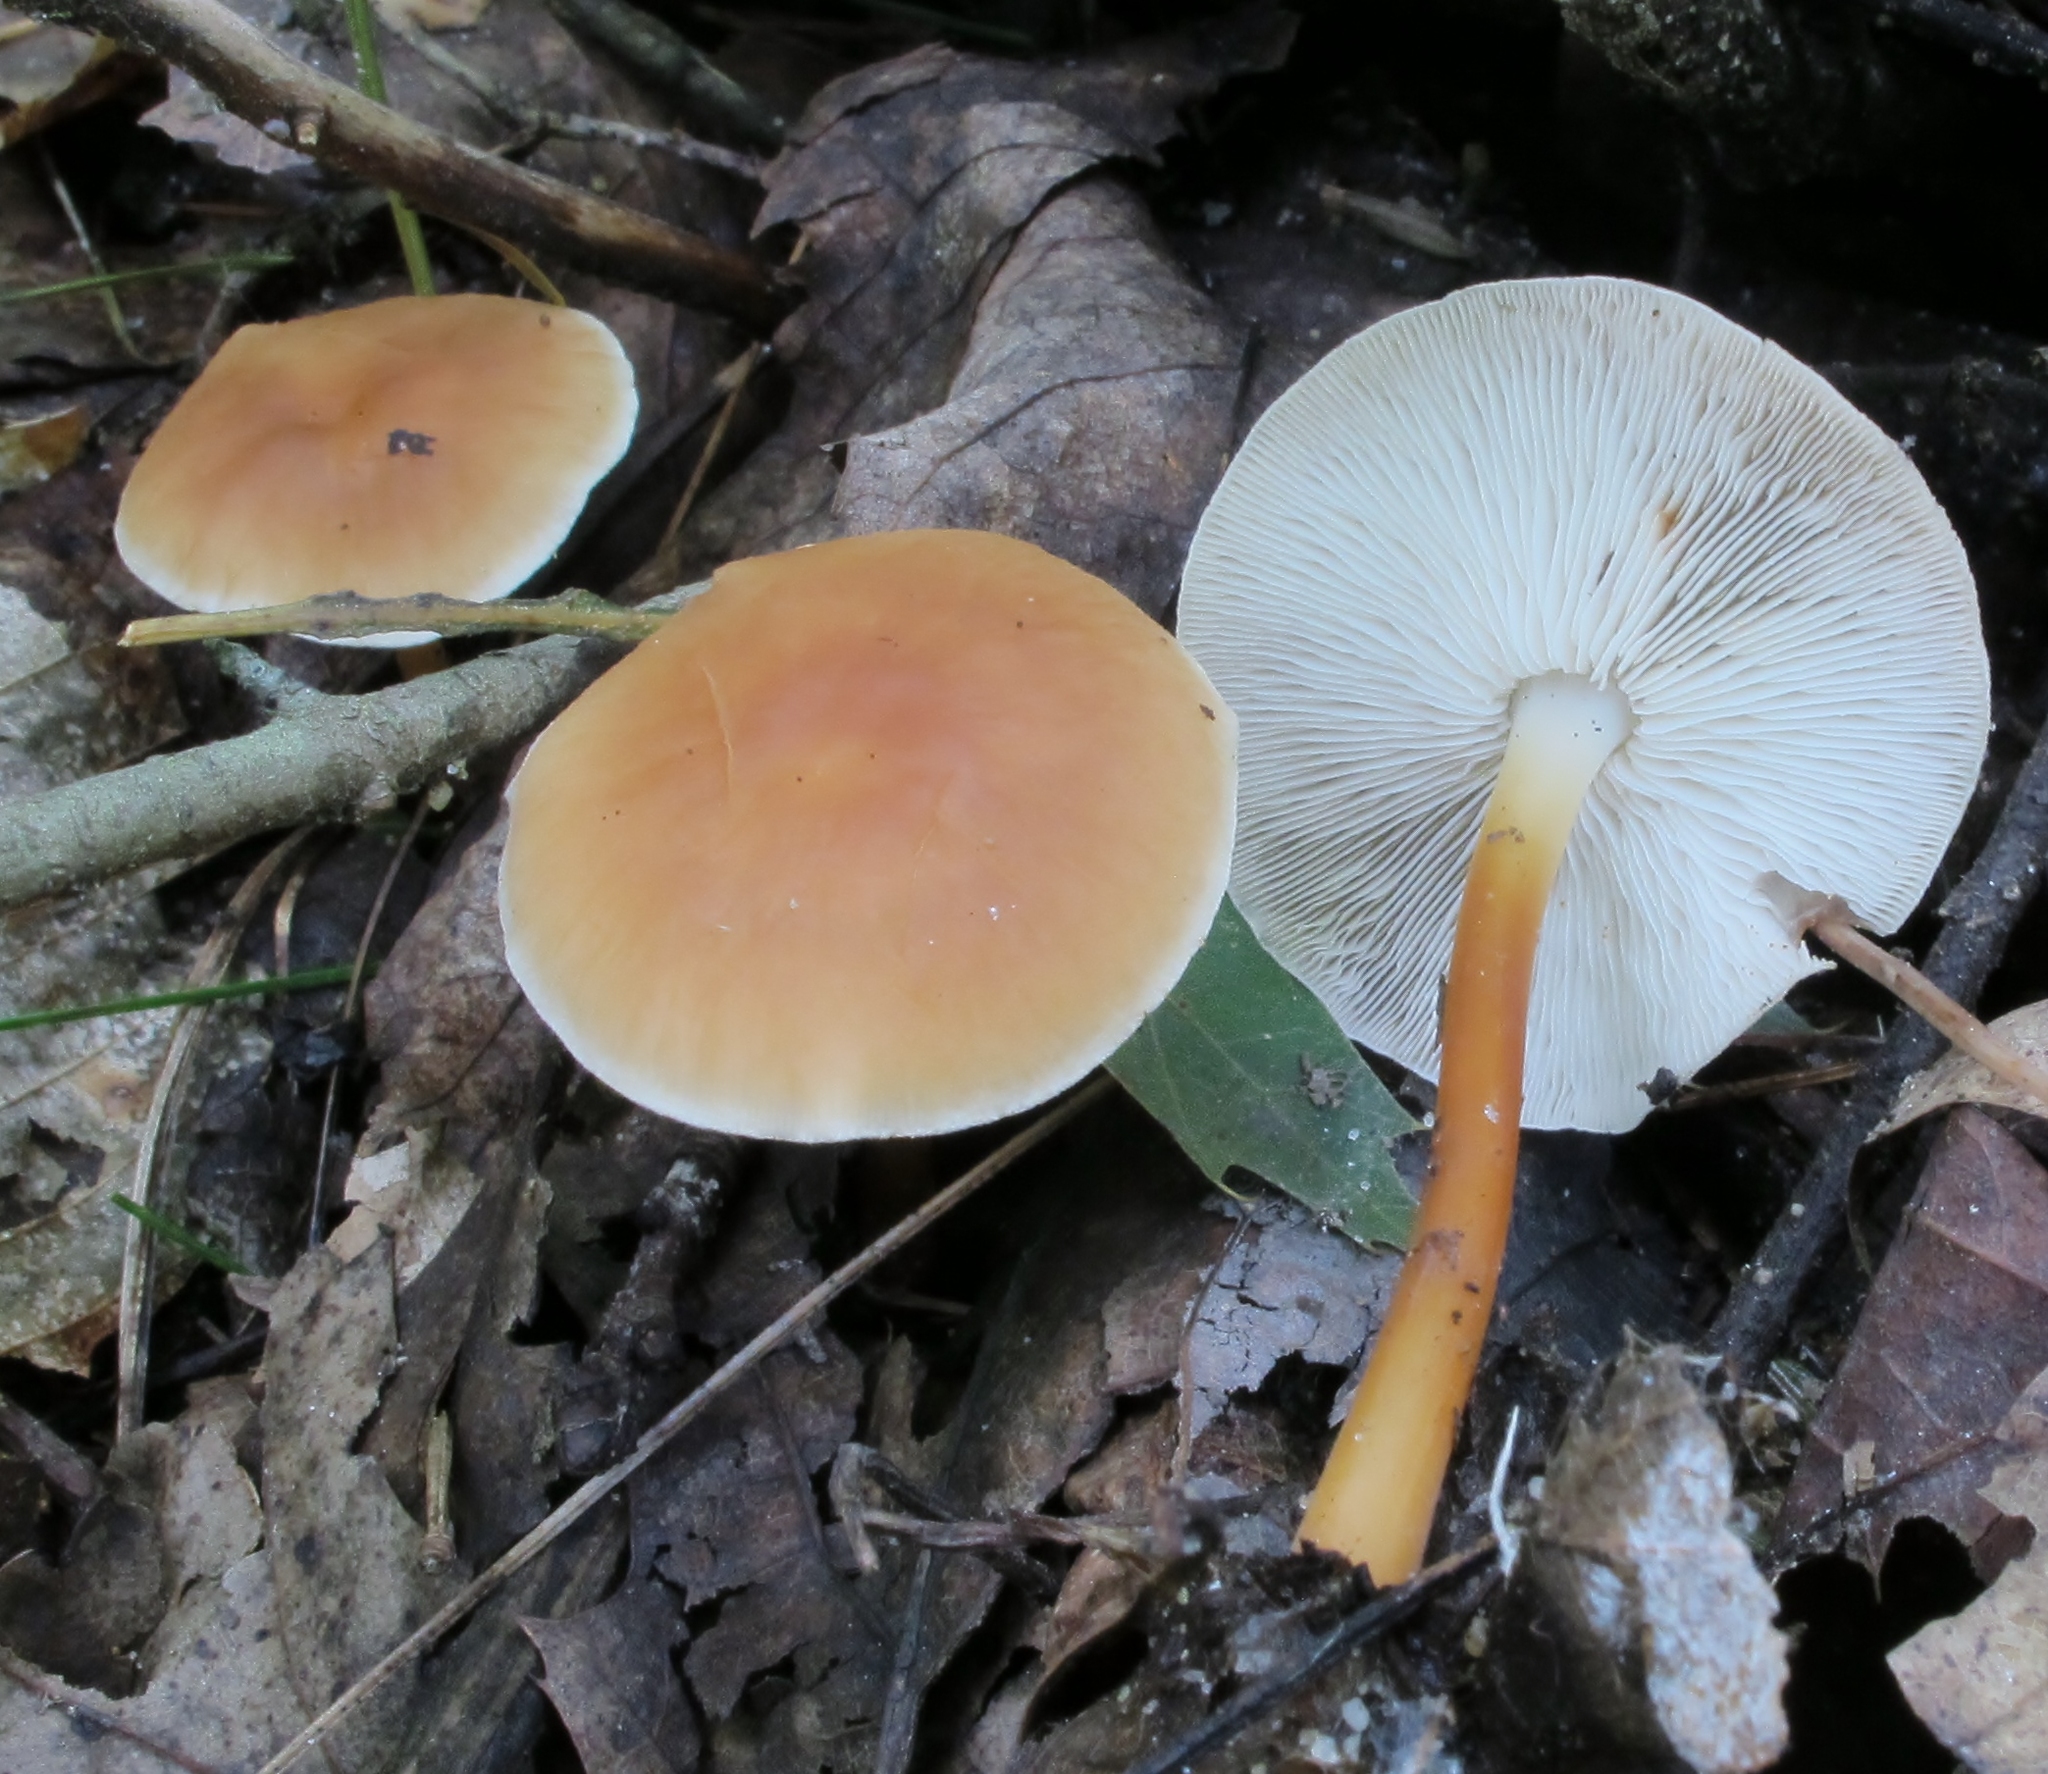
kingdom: Fungi
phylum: Basidiomycota
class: Agaricomycetes
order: Agaricales
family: Omphalotaceae
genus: Gymnopus
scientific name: Gymnopus dryophilus
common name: Penny top
